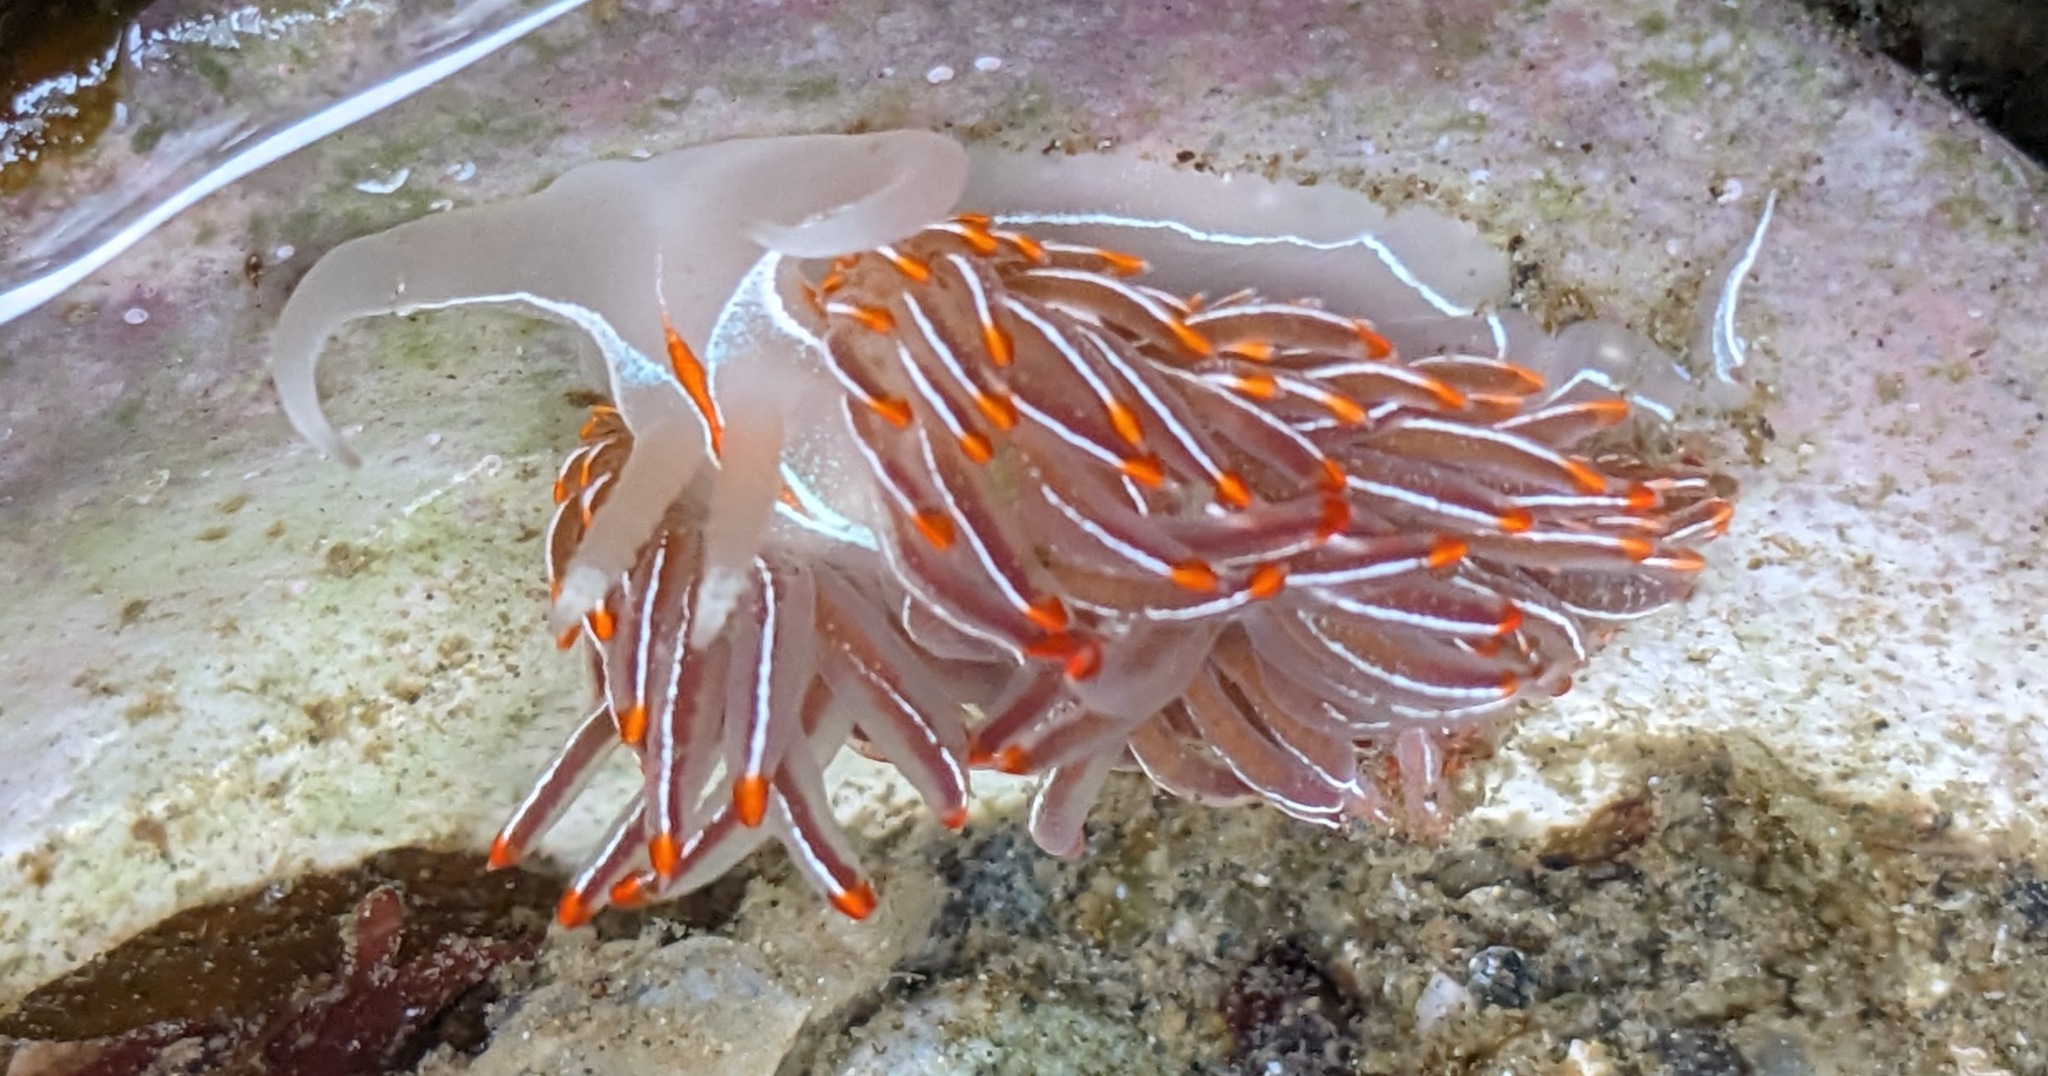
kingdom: Animalia
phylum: Mollusca
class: Gastropoda
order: Nudibranchia
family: Myrrhinidae
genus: Hermissenda
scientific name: Hermissenda crassicornis
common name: Hermissenda
